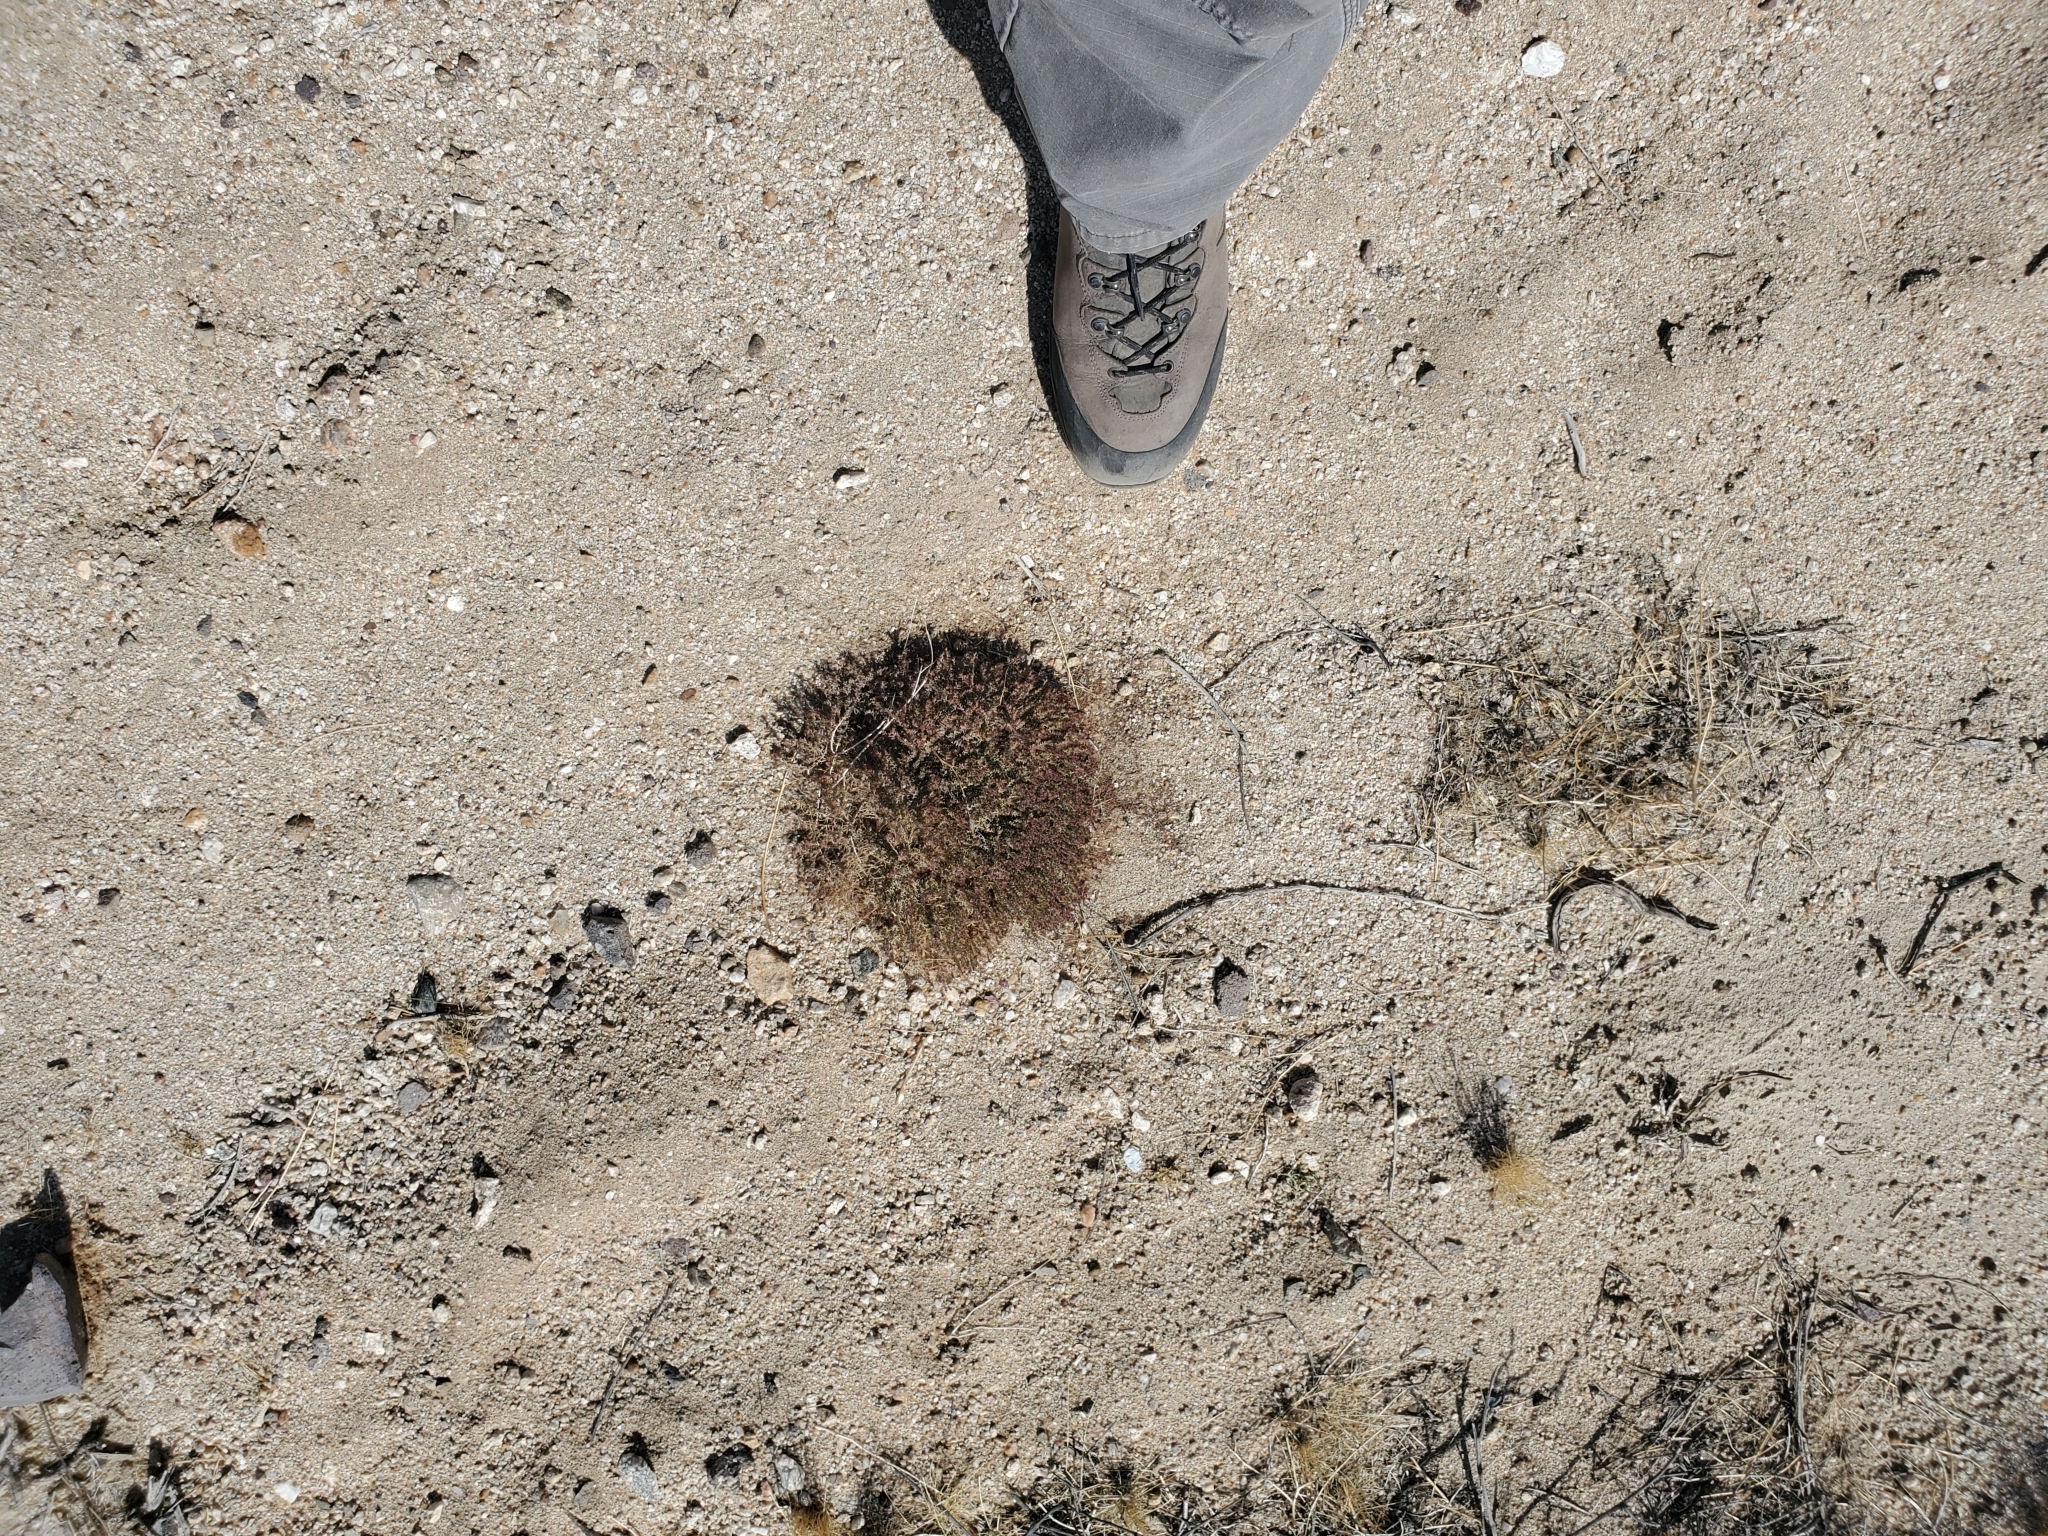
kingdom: Plantae
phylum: Tracheophyta
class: Magnoliopsida
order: Malpighiales
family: Euphorbiaceae
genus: Euphorbia
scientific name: Euphorbia polycarpa
